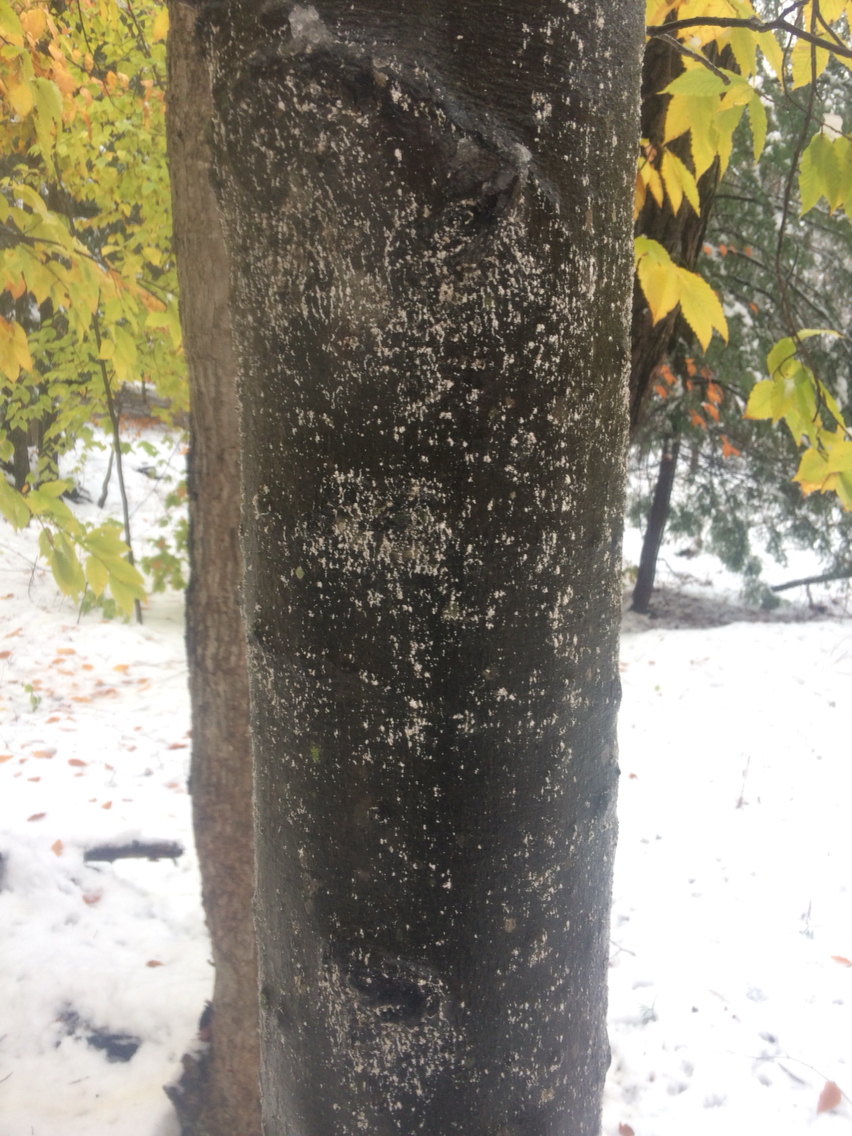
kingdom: Animalia
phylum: Arthropoda
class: Insecta
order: Hemiptera
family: Eriococcidae
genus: Cryptococcus
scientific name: Cryptococcus fagisuga
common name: Beech scale
